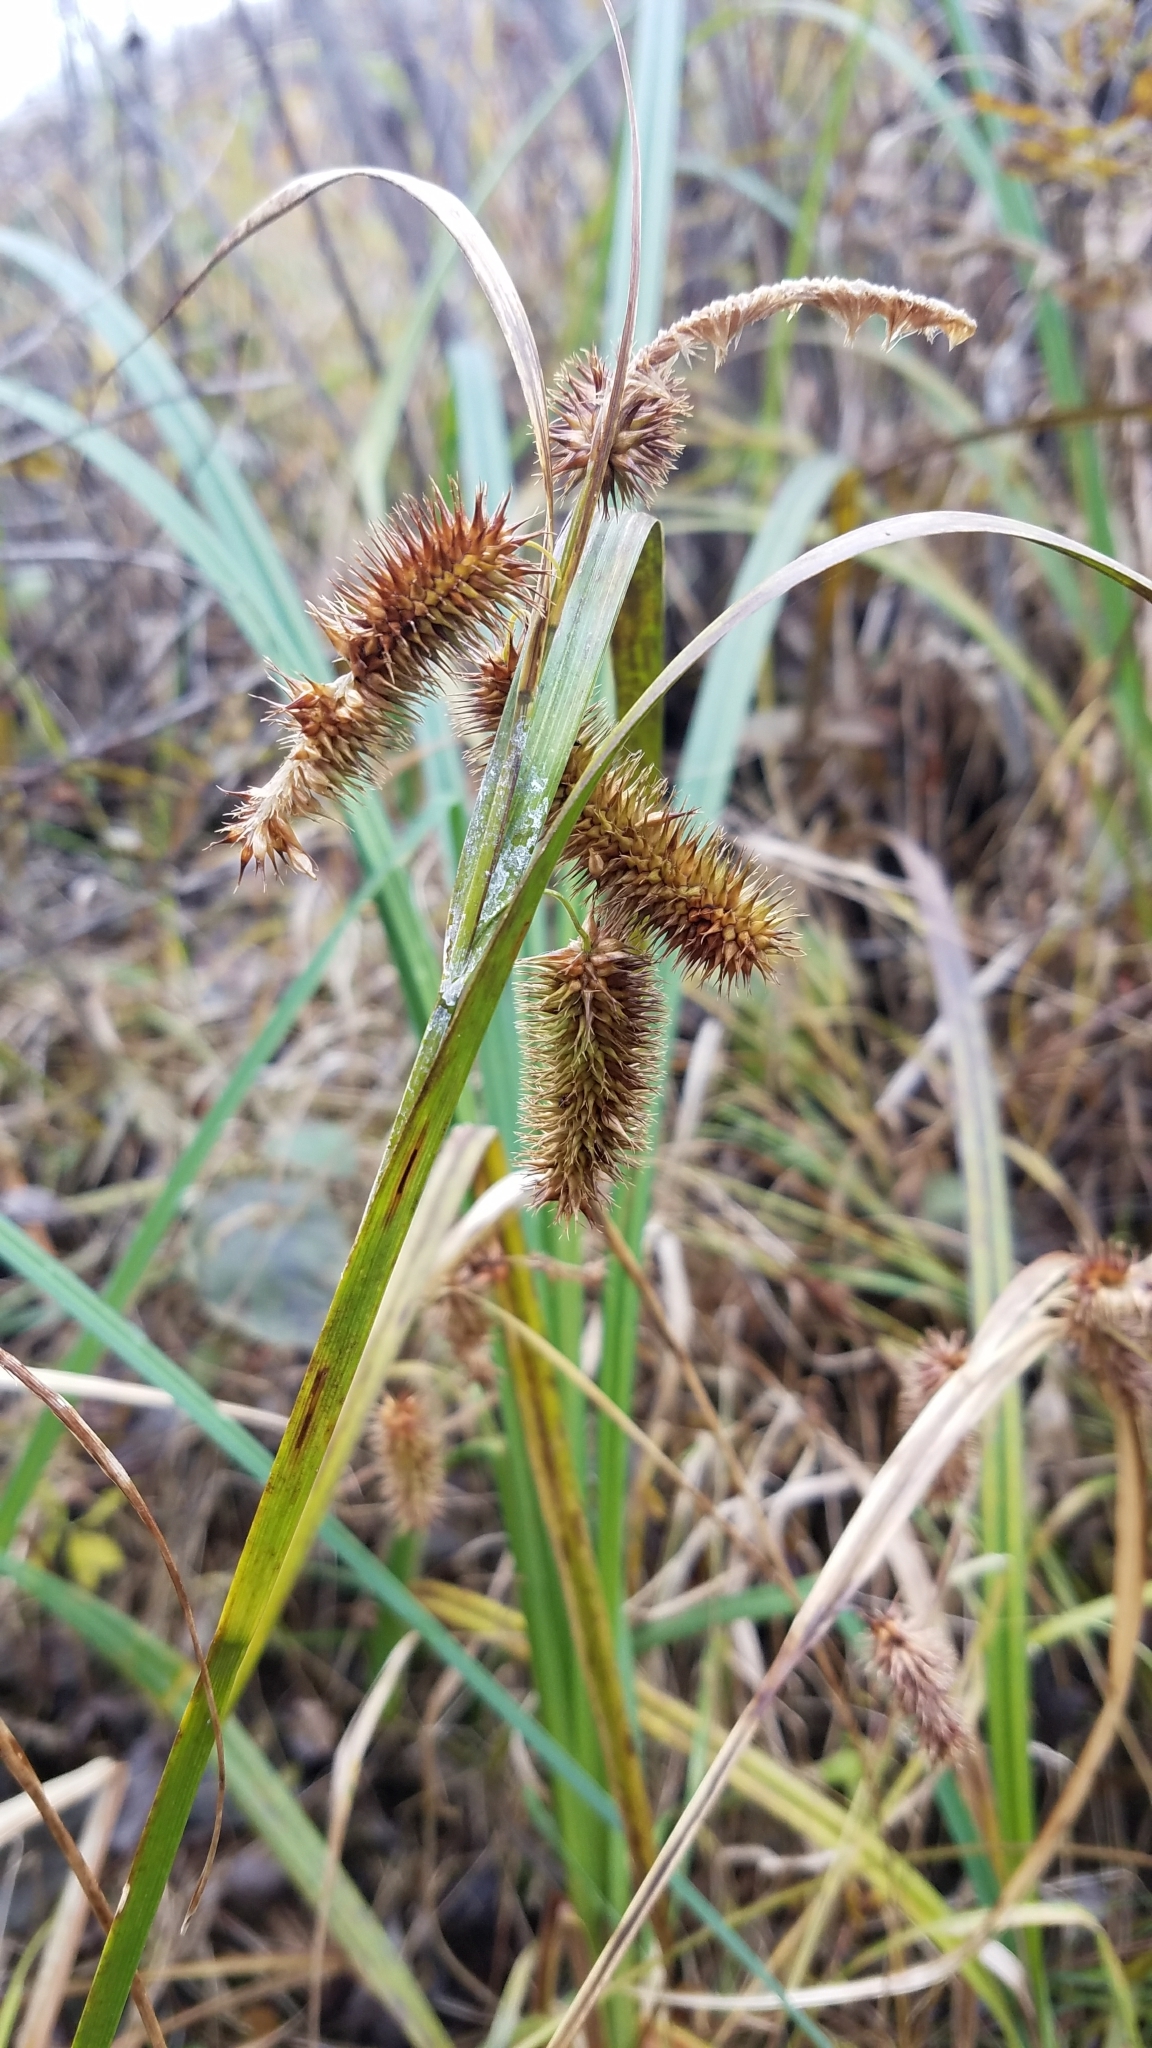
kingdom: Plantae
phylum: Tracheophyta
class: Liliopsida
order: Poales
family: Cyperaceae
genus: Carex
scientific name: Carex comosa
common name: Bristly sedge
